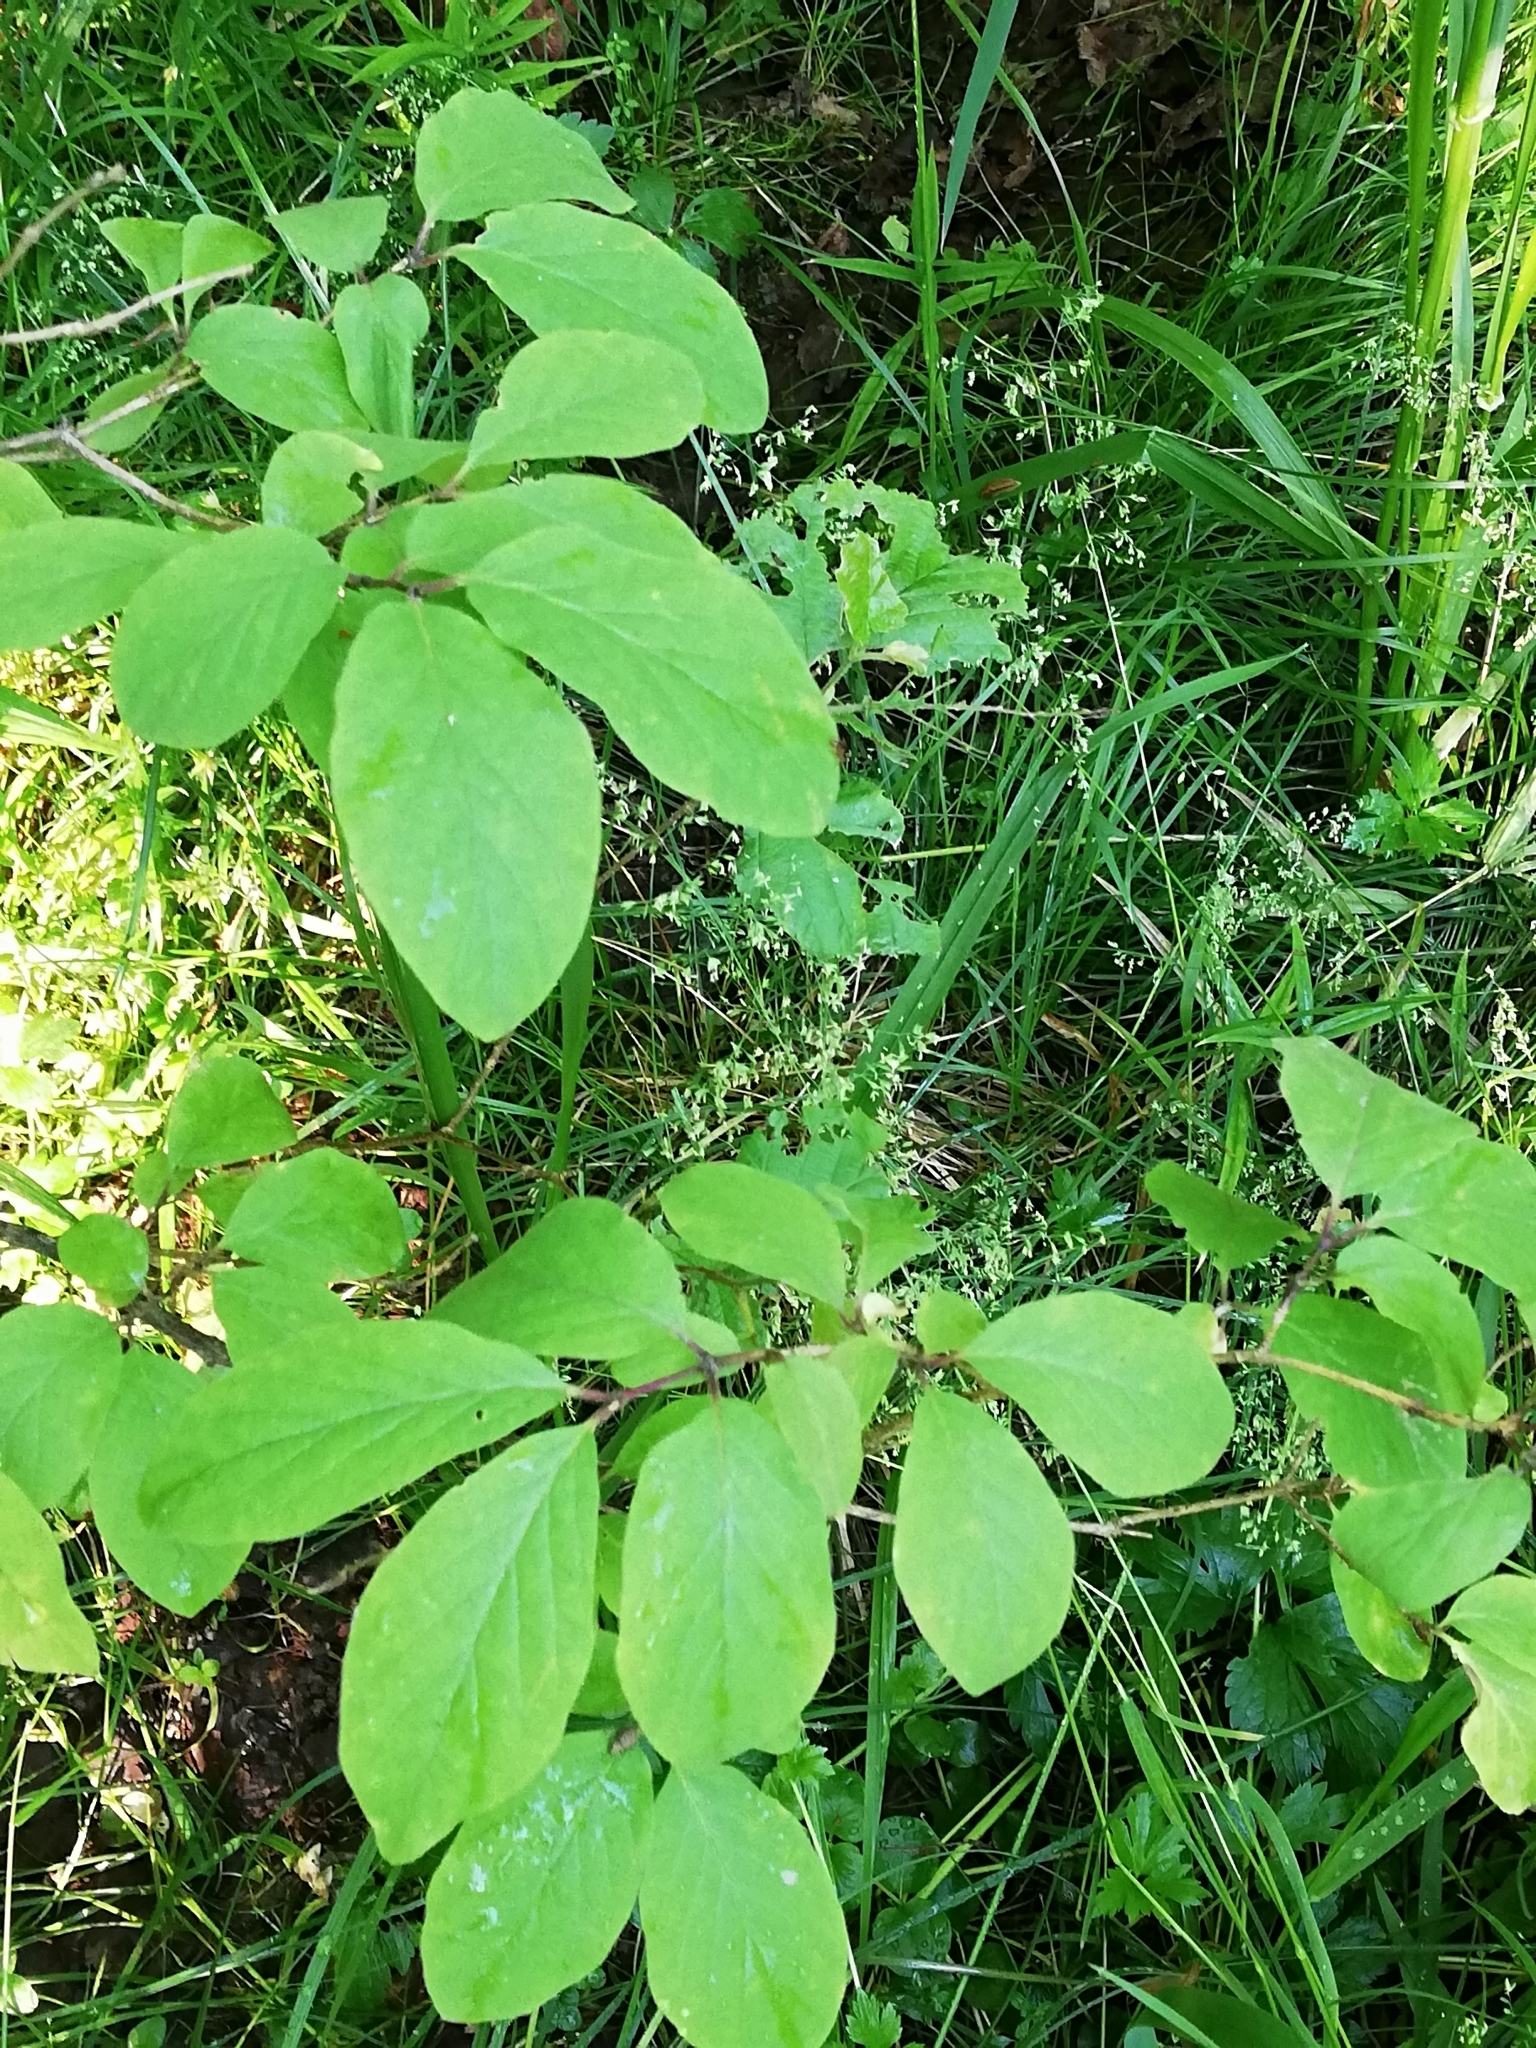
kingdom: Plantae
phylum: Tracheophyta
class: Magnoliopsida
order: Dipsacales
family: Caprifoliaceae
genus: Lonicera
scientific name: Lonicera xylosteum
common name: Fly honeysuckle
